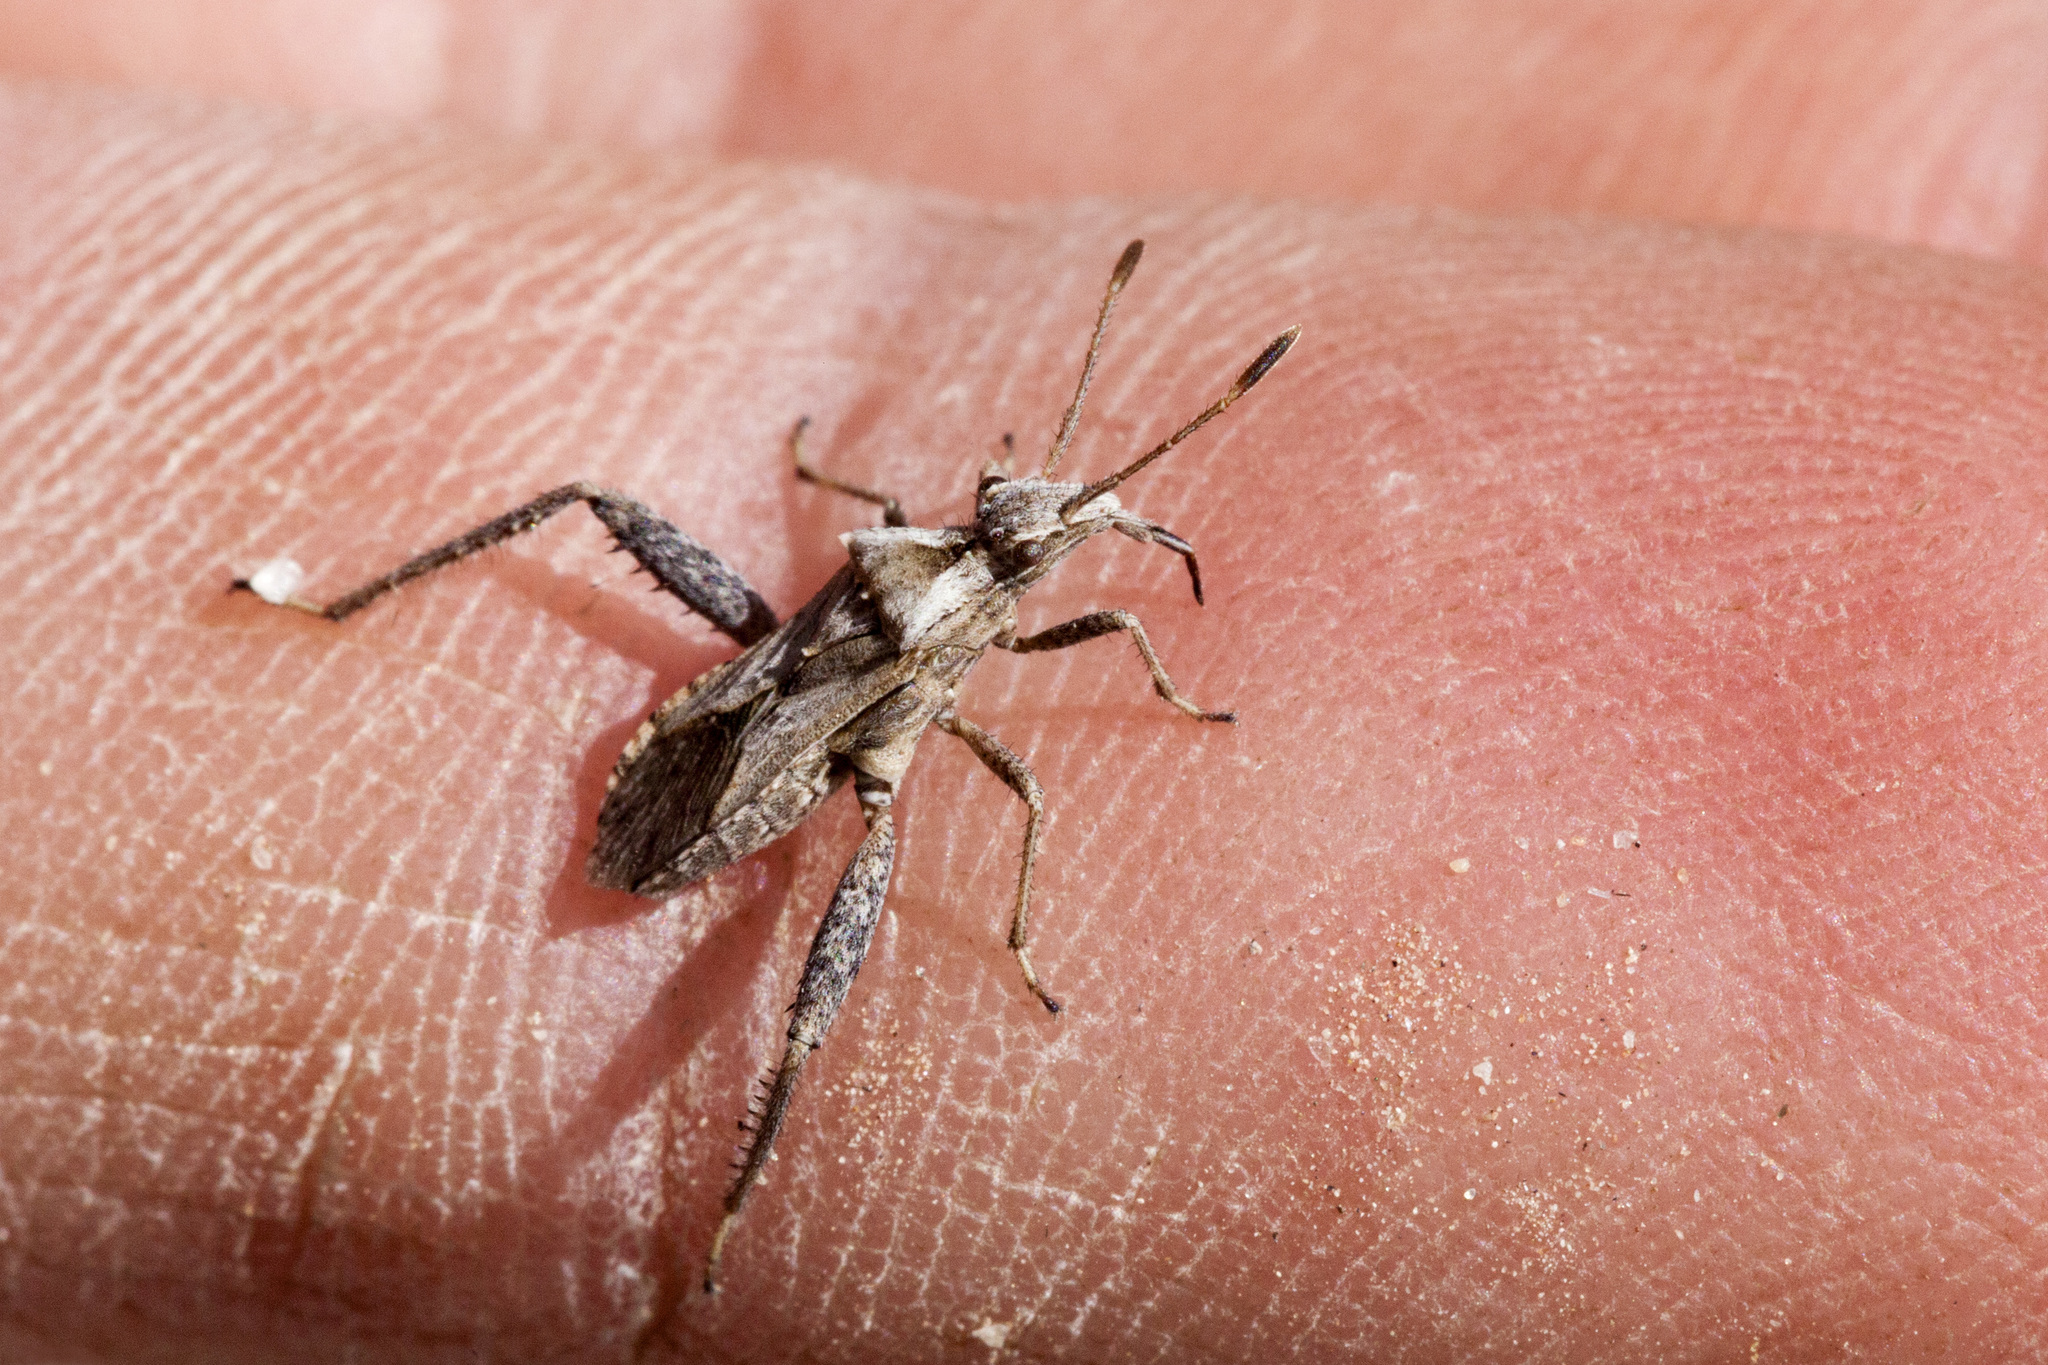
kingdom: Animalia
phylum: Arthropoda
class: Insecta
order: Hemiptera
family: Alydidae
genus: Stachyocnemus
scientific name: Stachyocnemus apicalis
